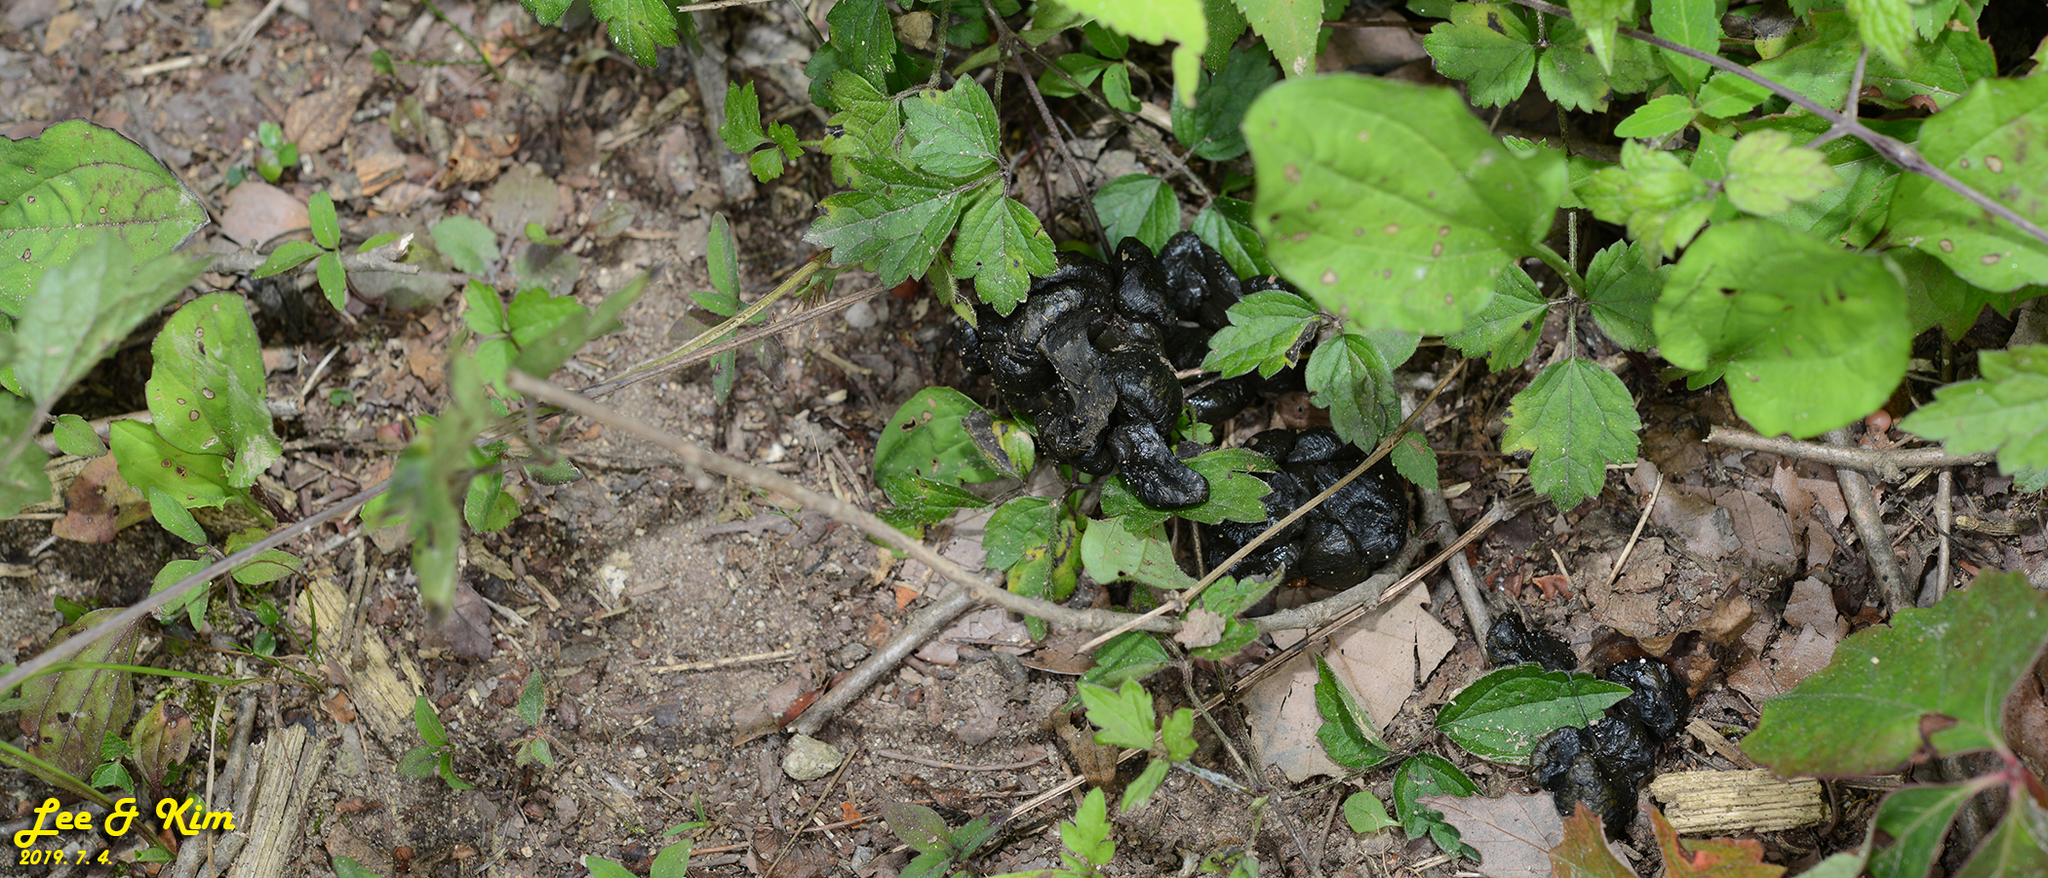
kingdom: Animalia
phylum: Chordata
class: Mammalia
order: Artiodactyla
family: Cervidae
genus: Hydropotes
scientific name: Hydropotes inermis
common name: Chinese water deer
